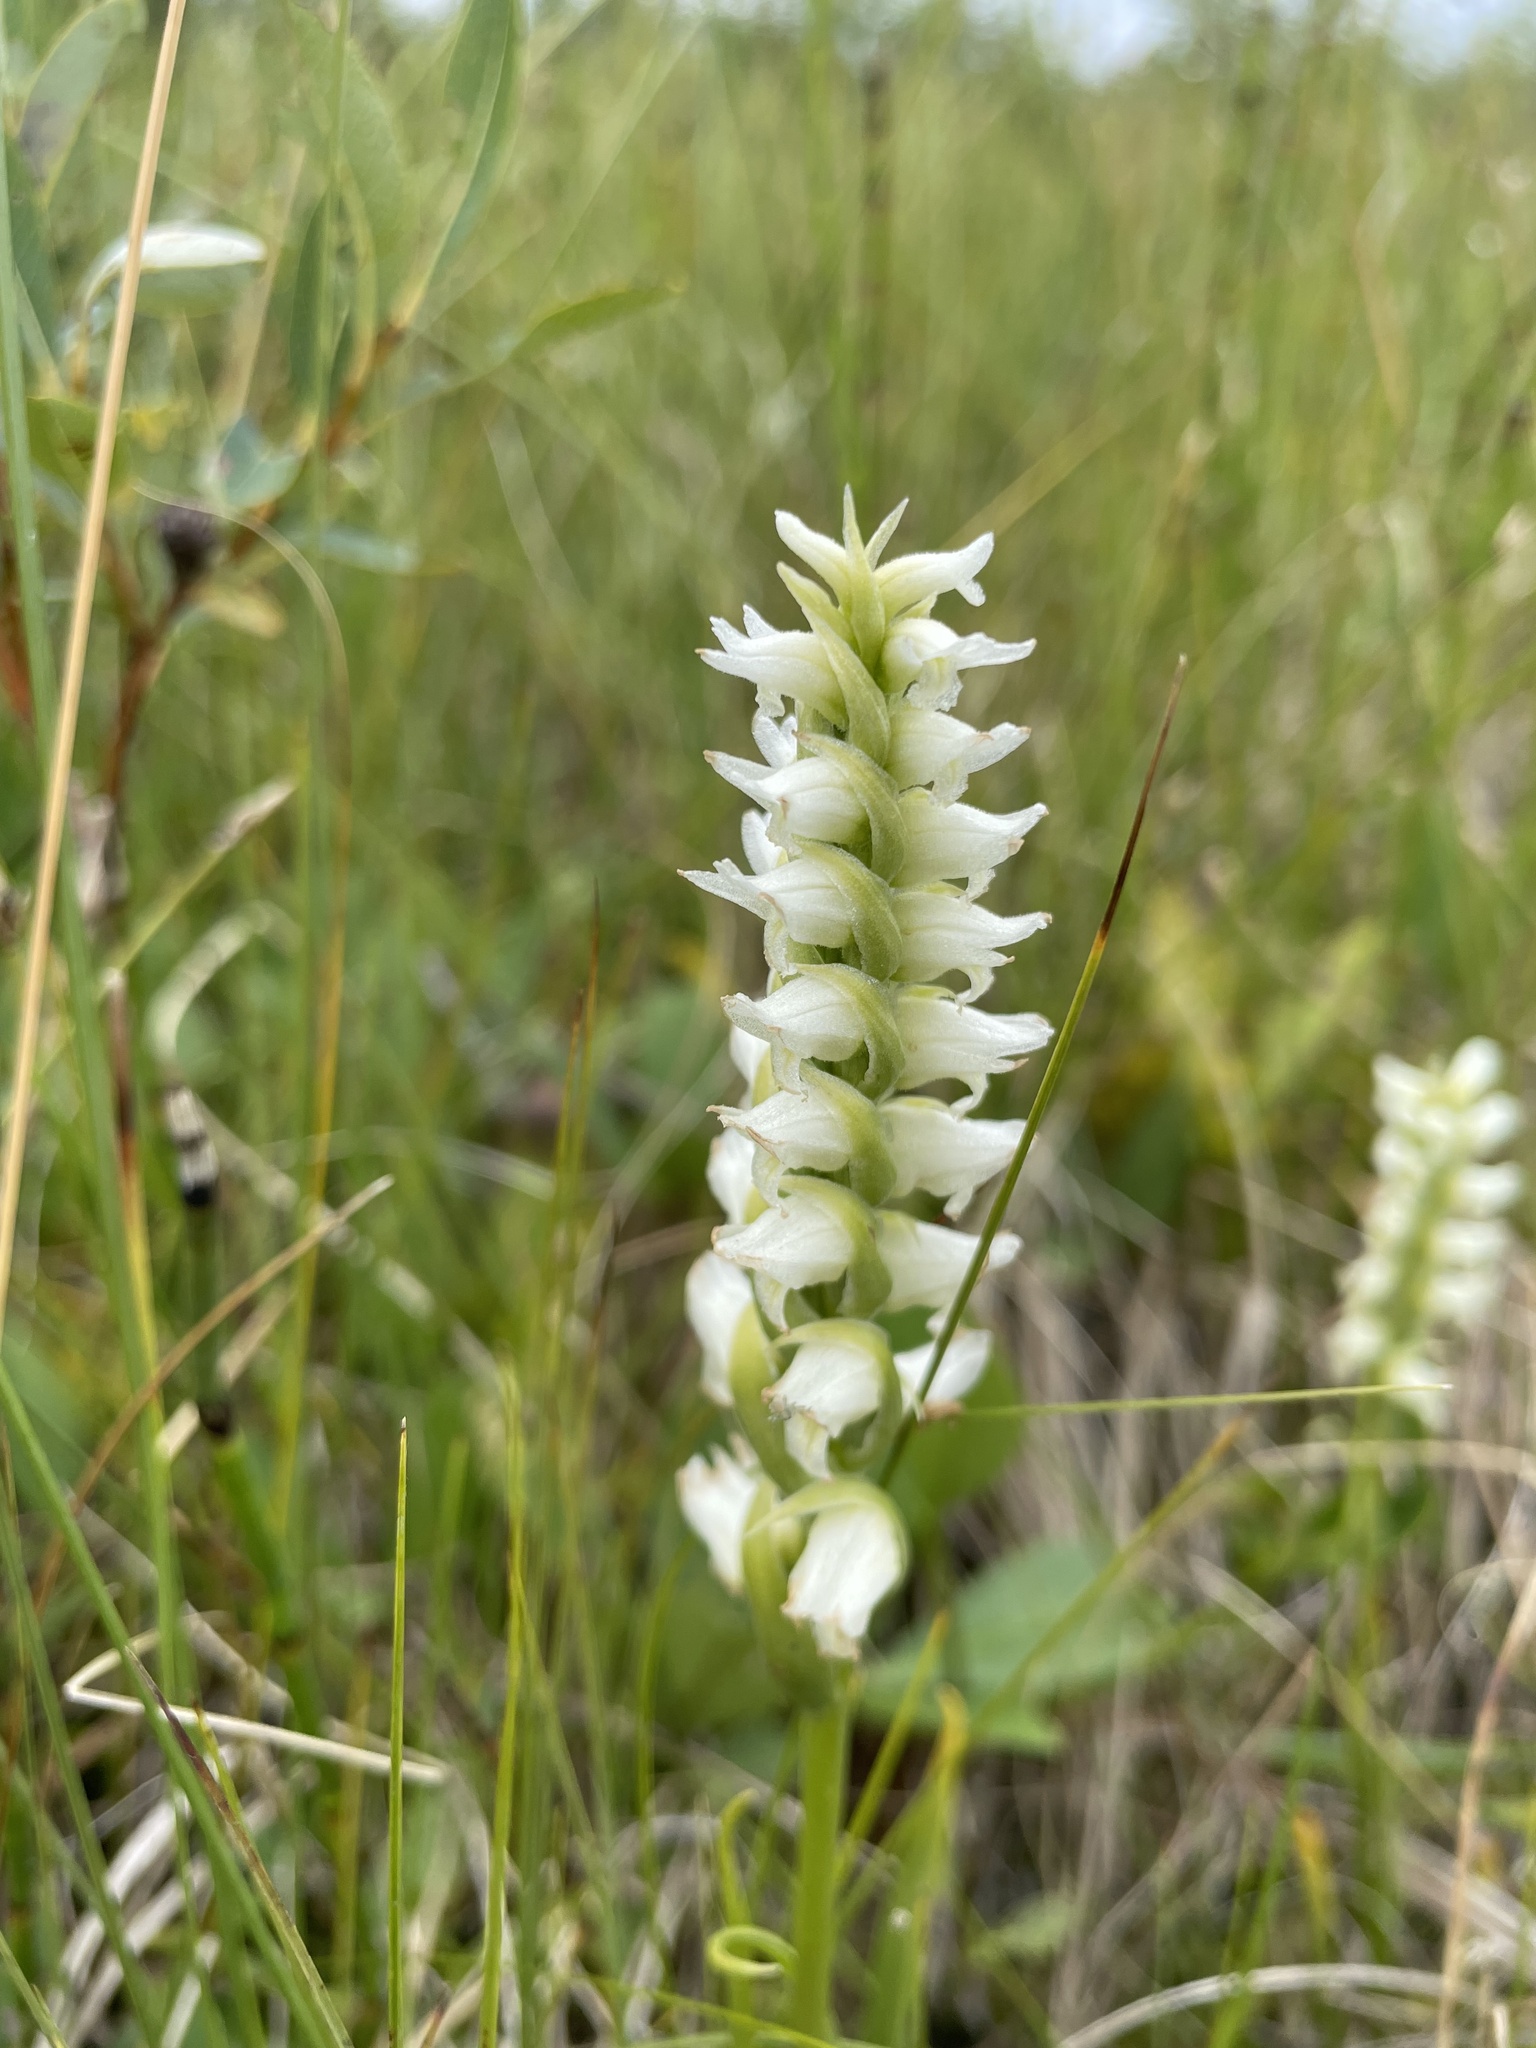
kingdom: Plantae
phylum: Tracheophyta
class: Liliopsida
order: Asparagales
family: Orchidaceae
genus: Spiranthes
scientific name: Spiranthes romanzoffiana
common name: Irish lady's-tresses
